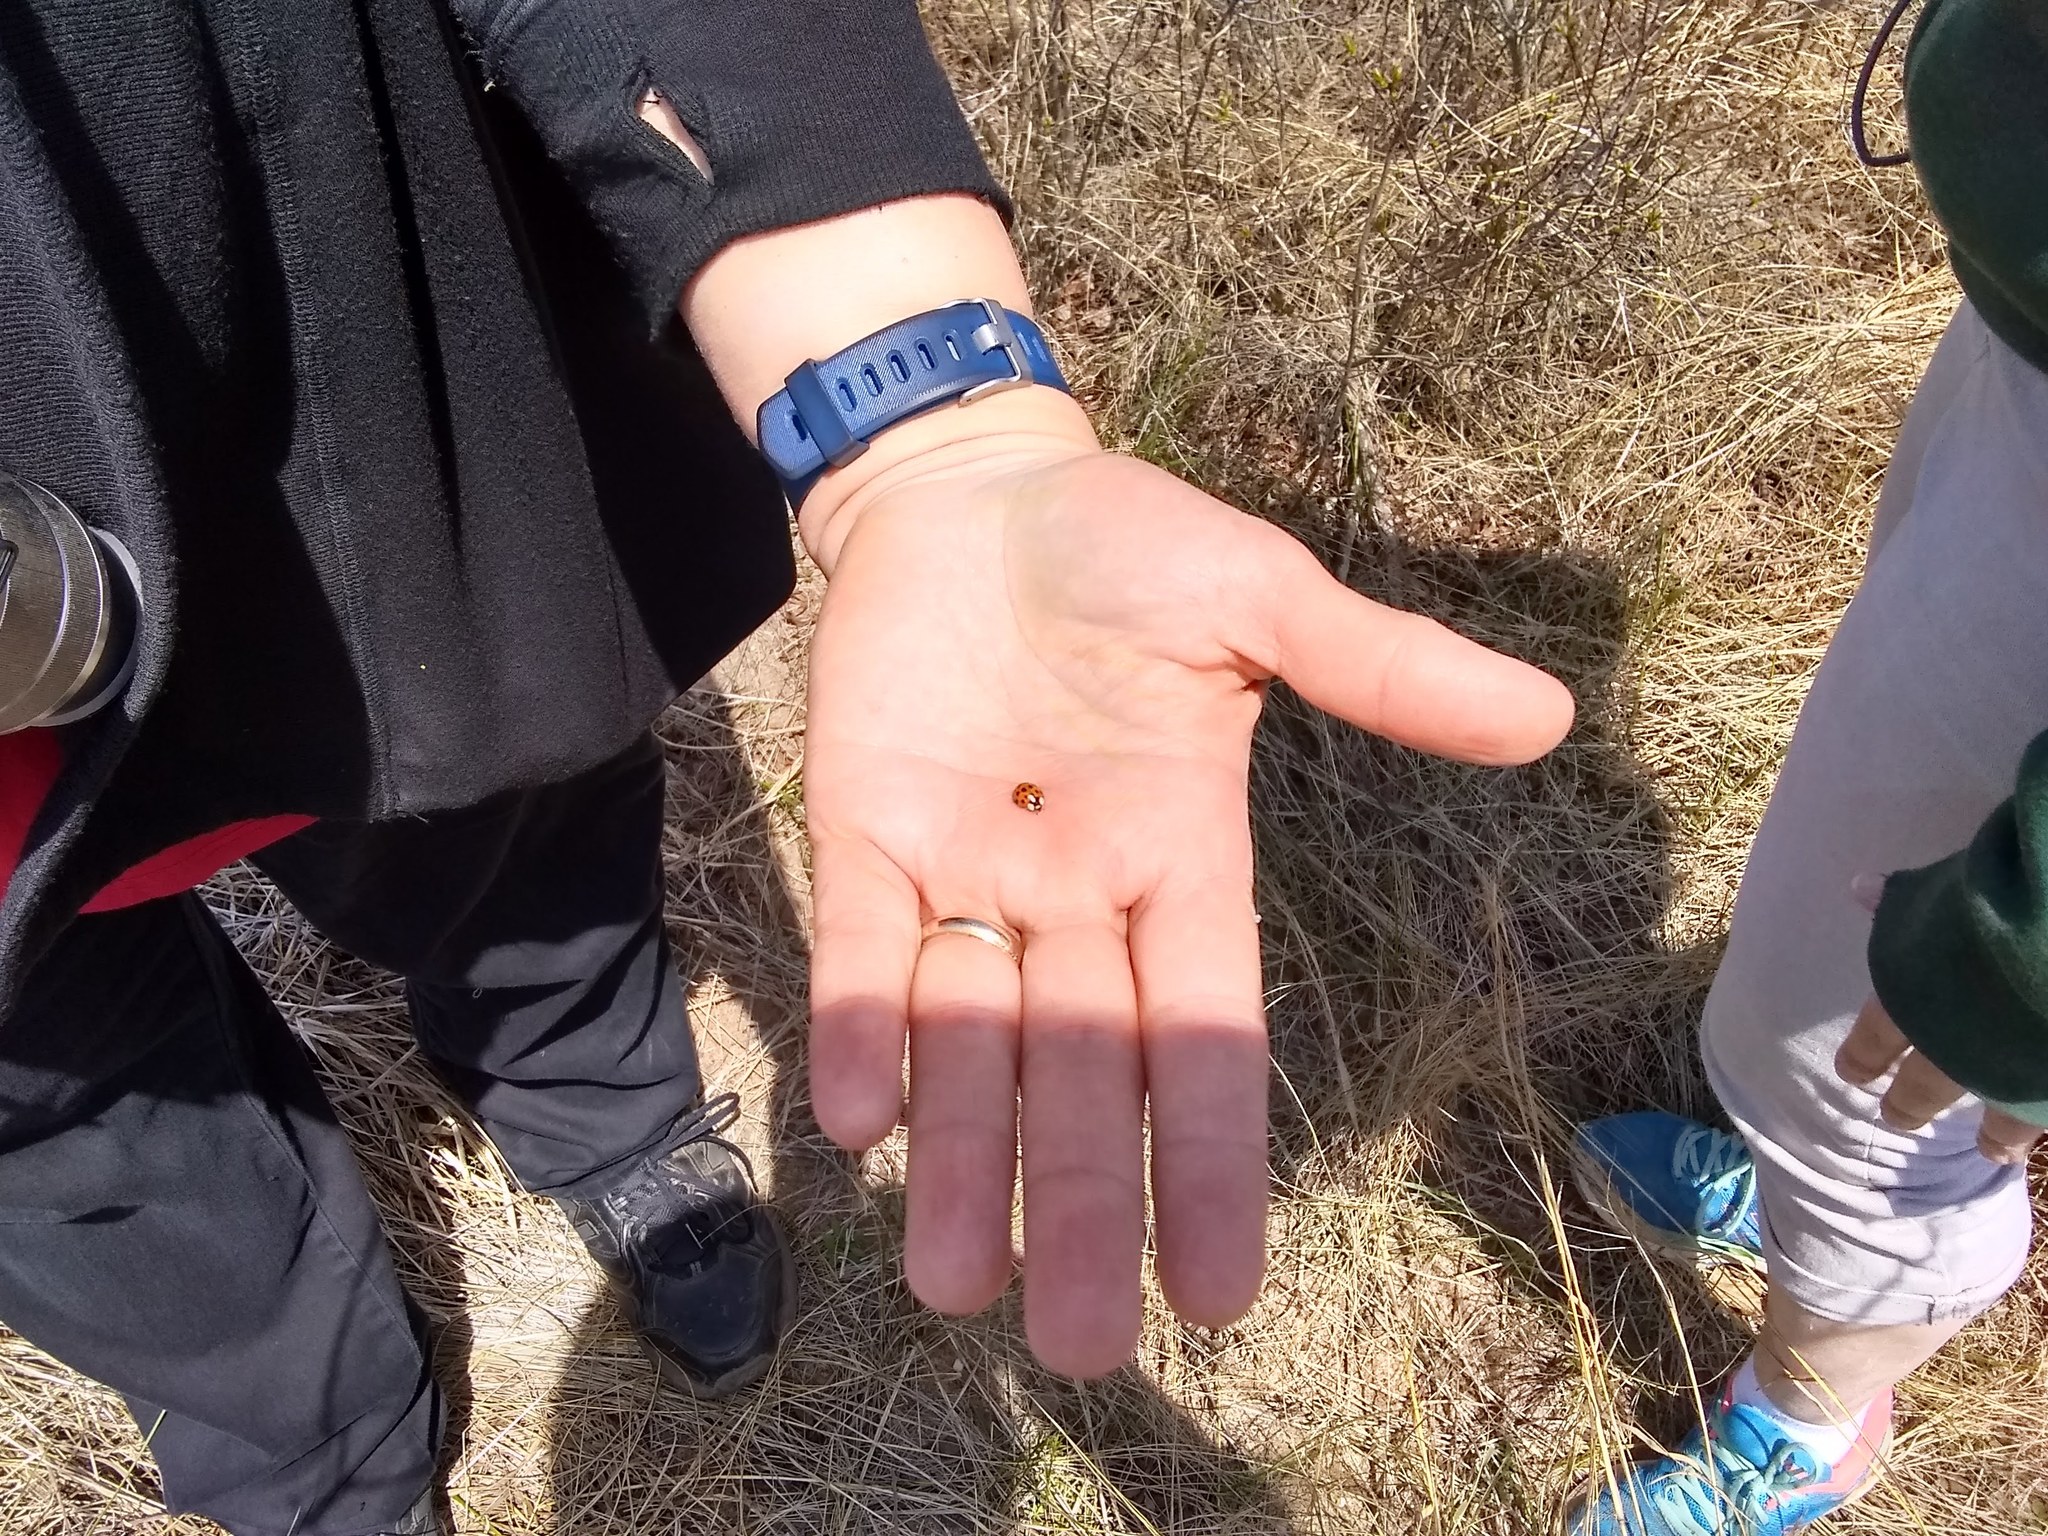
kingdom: Animalia
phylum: Arthropoda
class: Insecta
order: Coleoptera
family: Coccinellidae
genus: Harmonia
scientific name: Harmonia axyridis
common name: Harlequin ladybird
